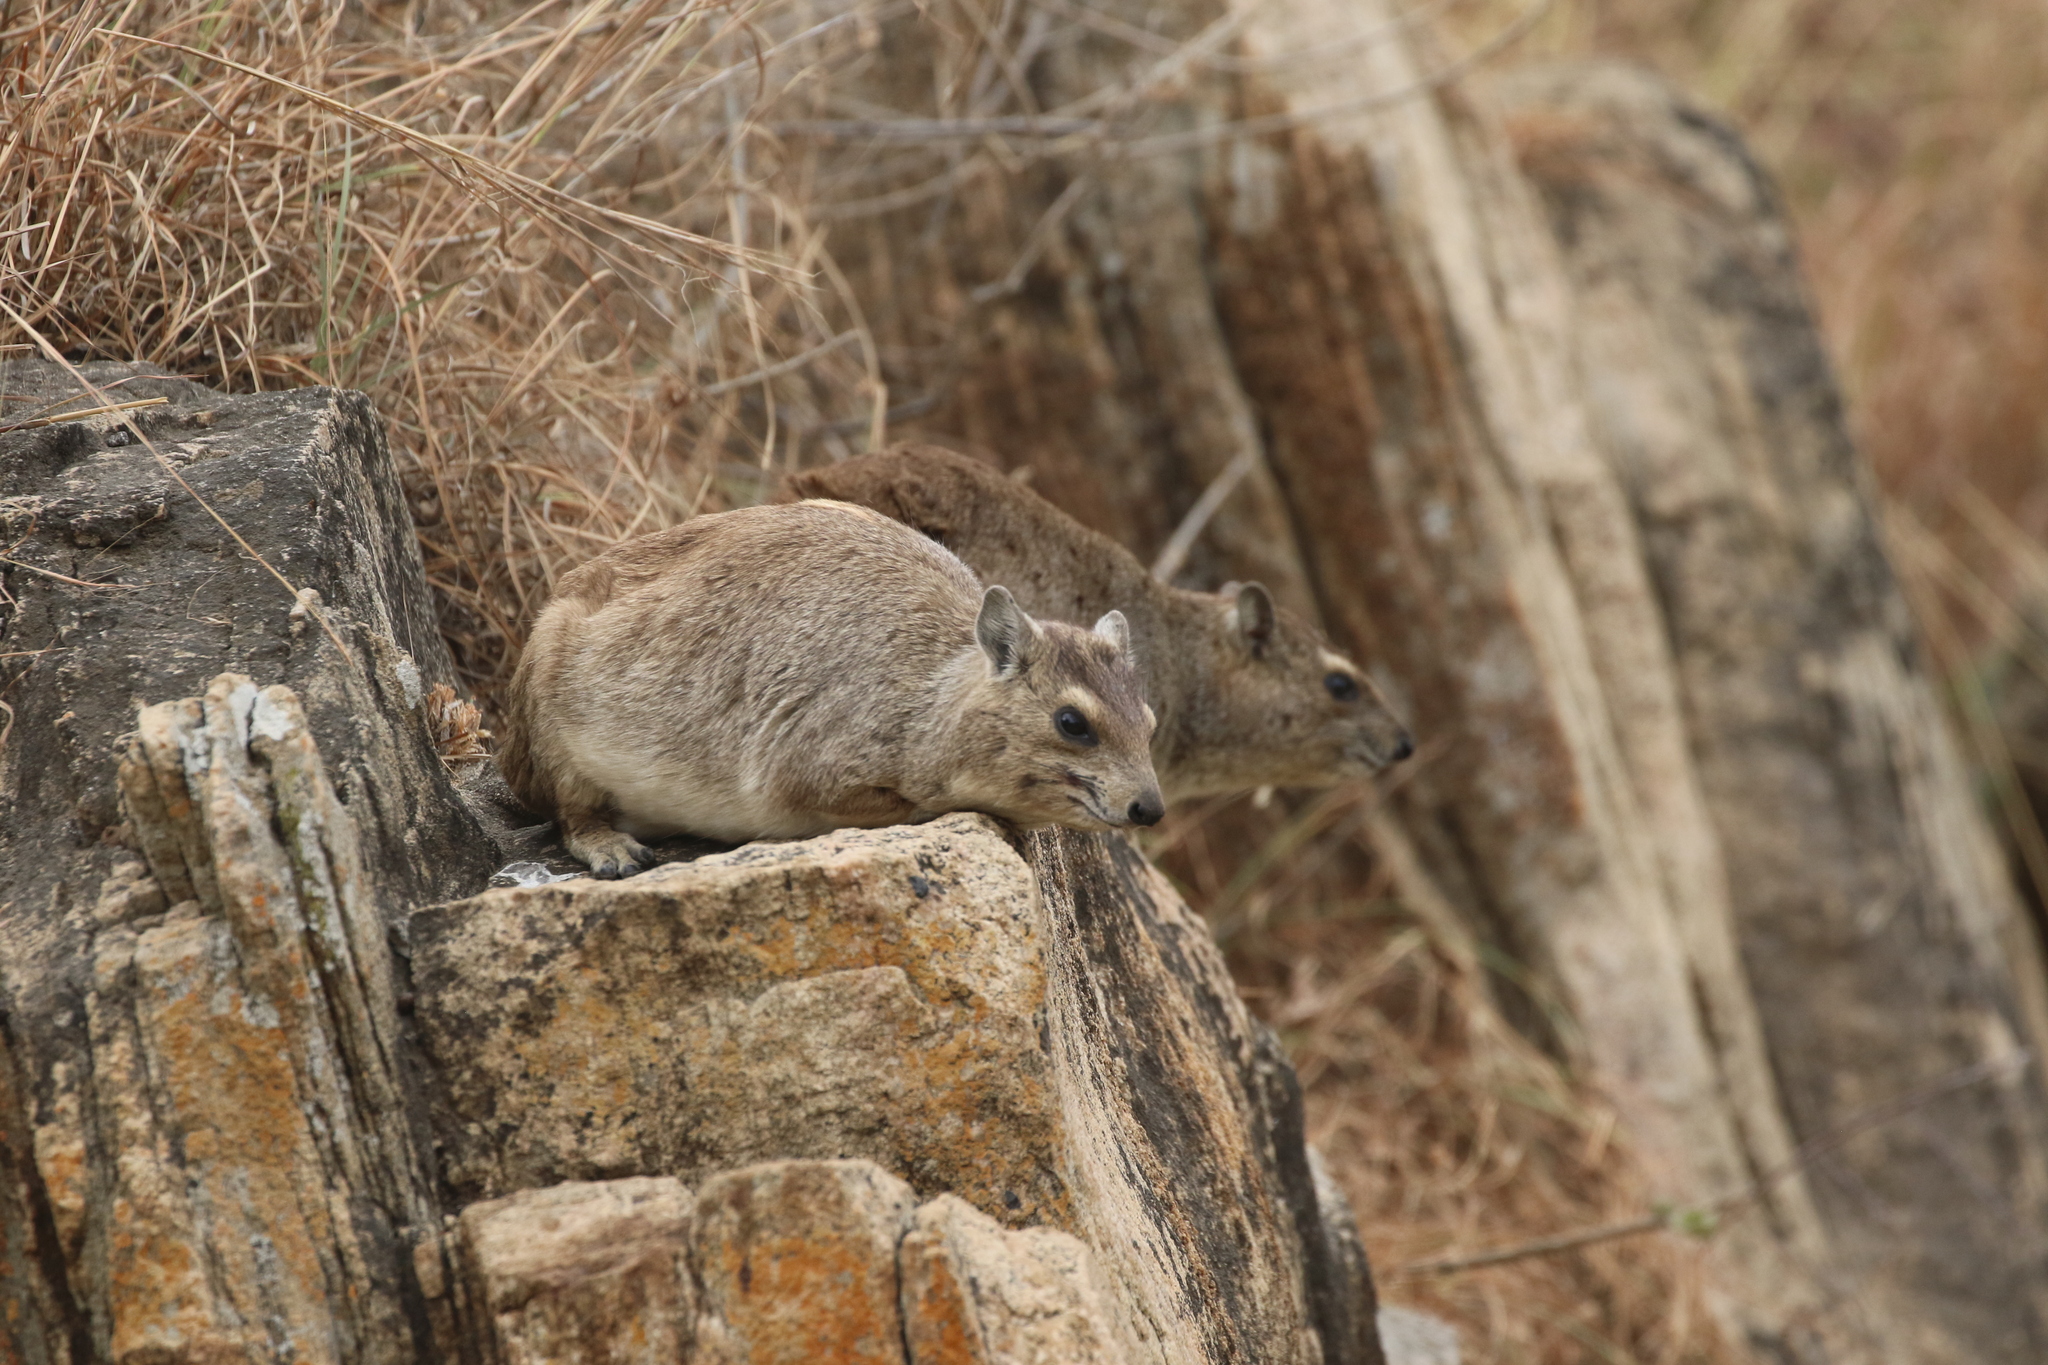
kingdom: Animalia
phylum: Chordata
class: Mammalia
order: Hyracoidea
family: Procaviidae
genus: Heterohyrax
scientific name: Heterohyrax brucei
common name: Bush hyrax
